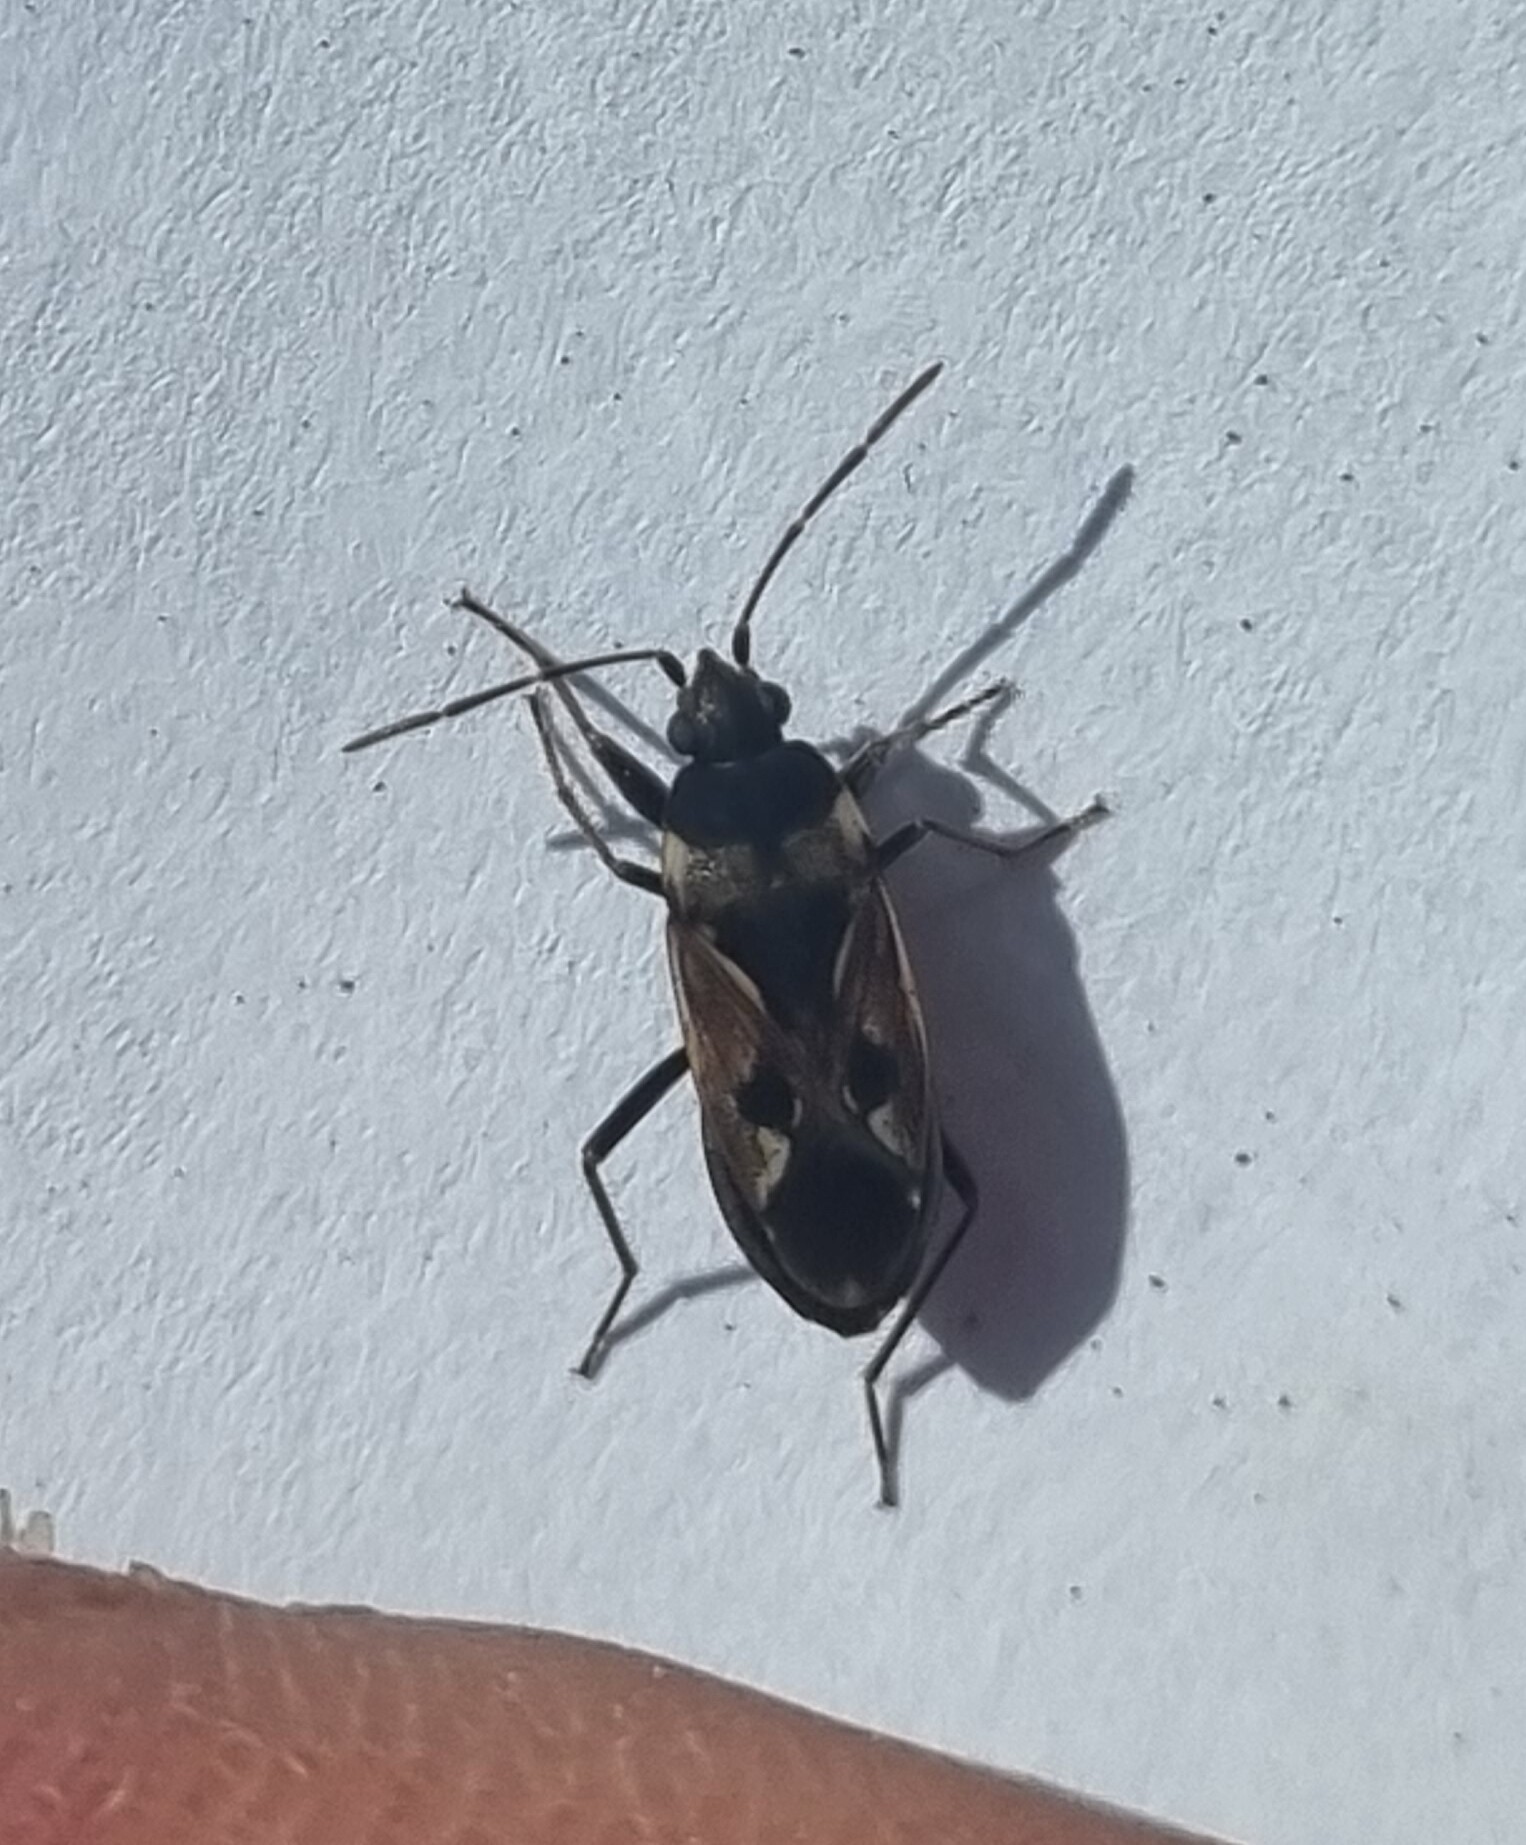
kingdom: Animalia
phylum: Arthropoda
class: Insecta
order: Hemiptera
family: Rhyparochromidae
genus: Rhyparochromus
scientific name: Rhyparochromus vulgaris
